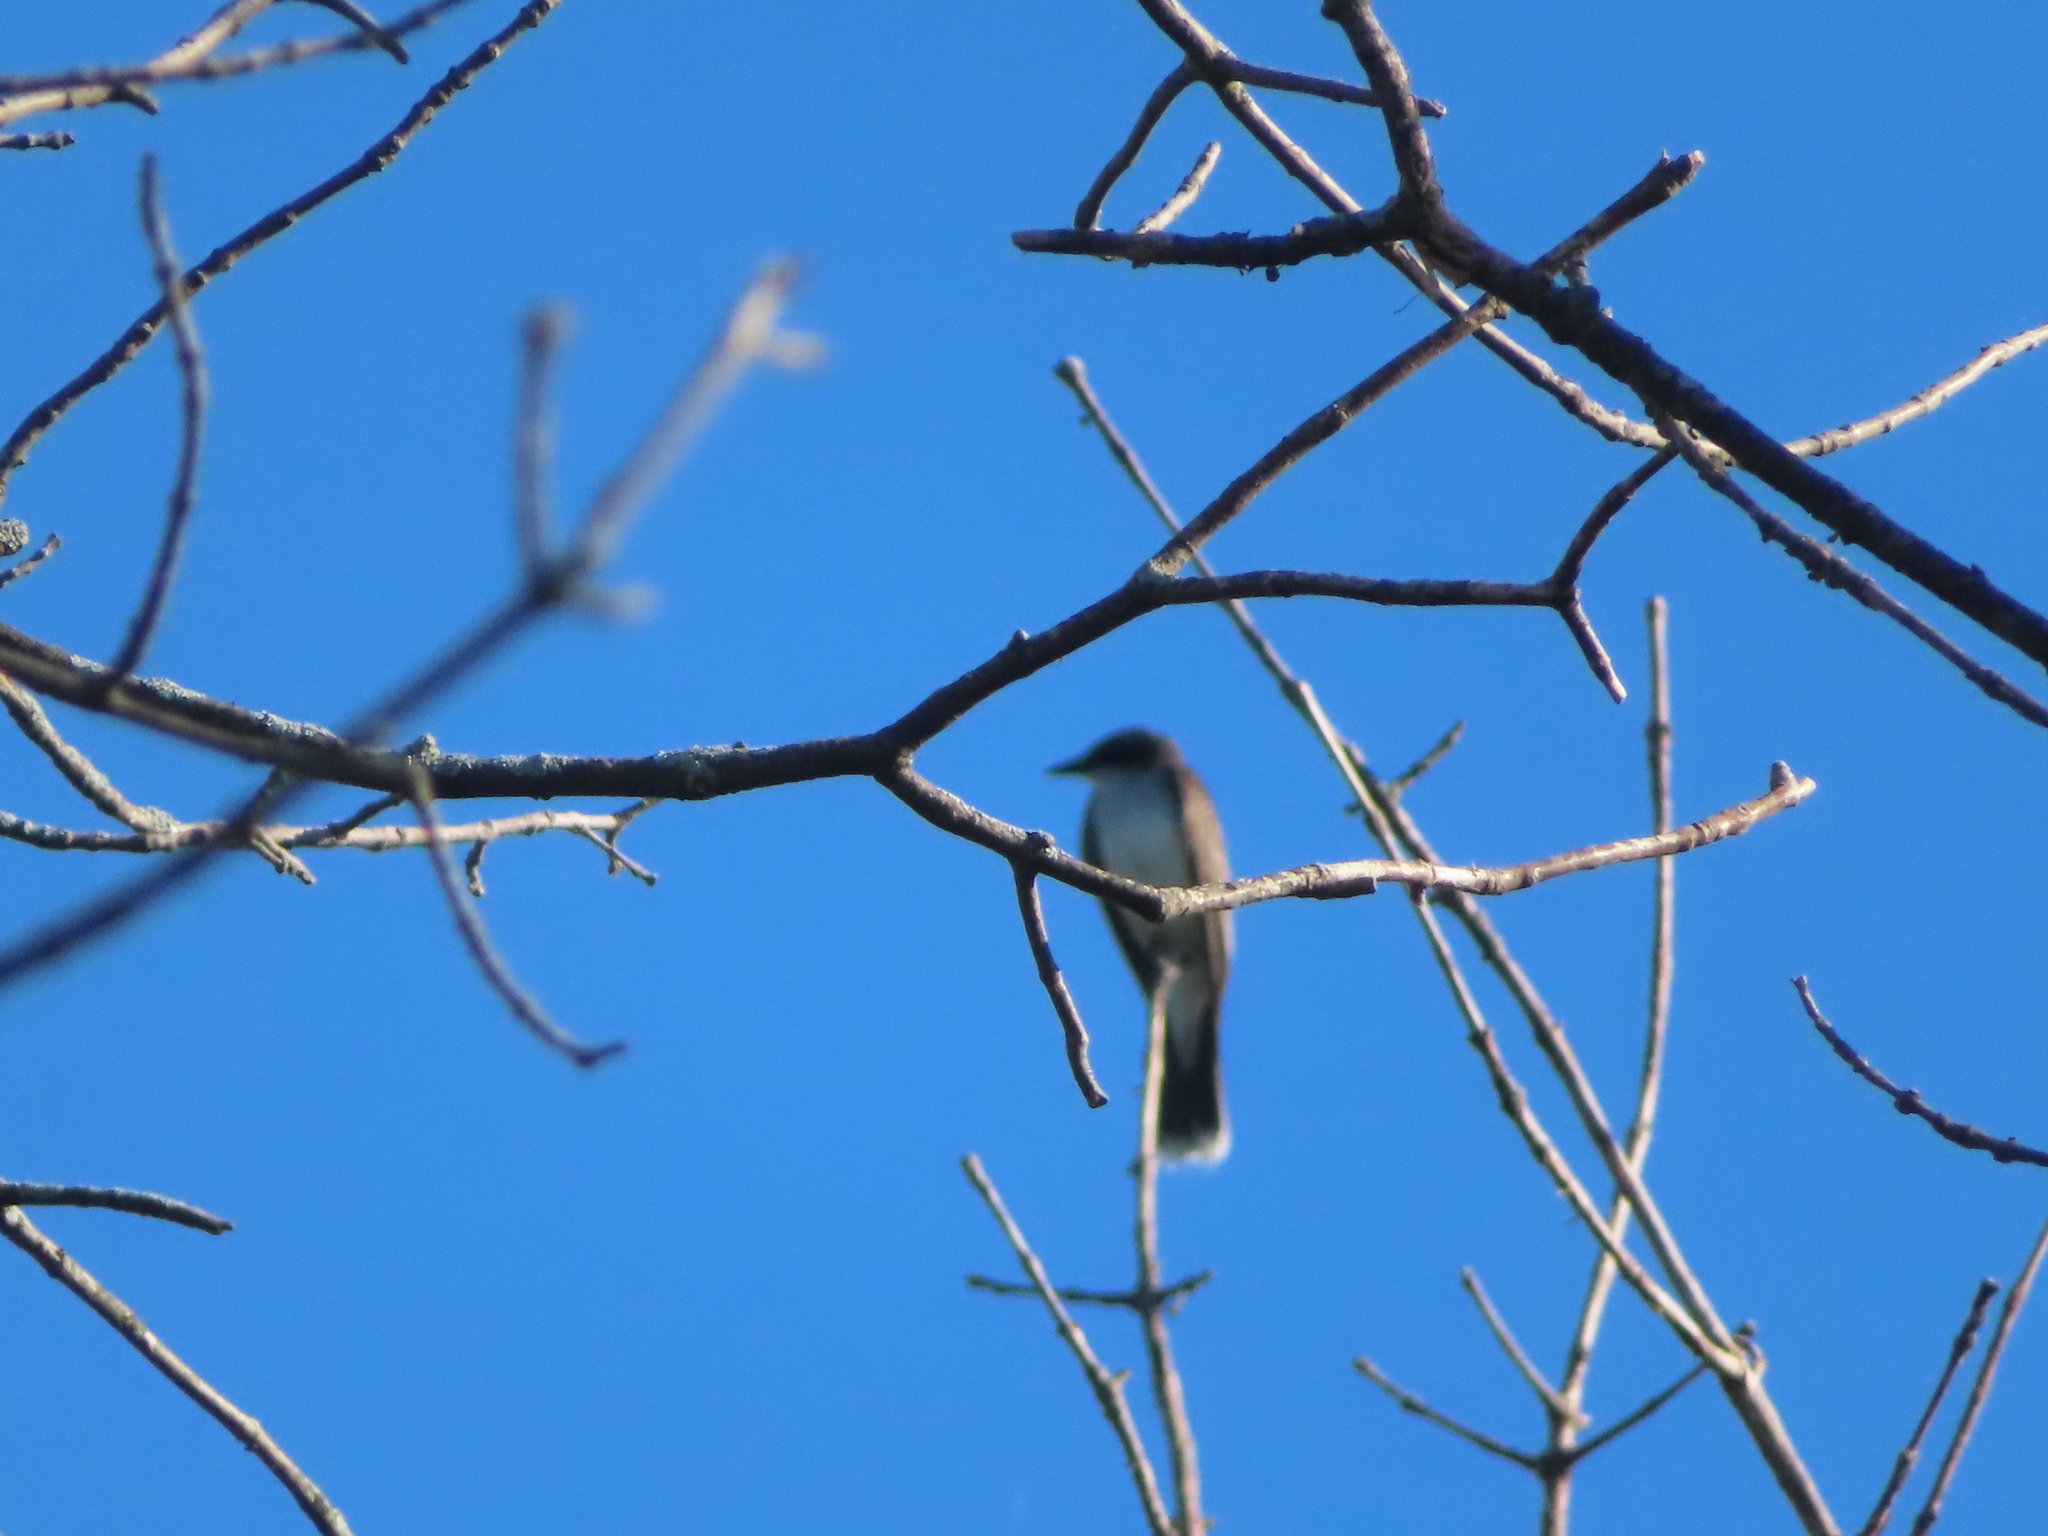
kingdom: Animalia
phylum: Chordata
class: Aves
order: Passeriformes
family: Tyrannidae
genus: Tyrannus
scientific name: Tyrannus tyrannus
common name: Eastern kingbird
